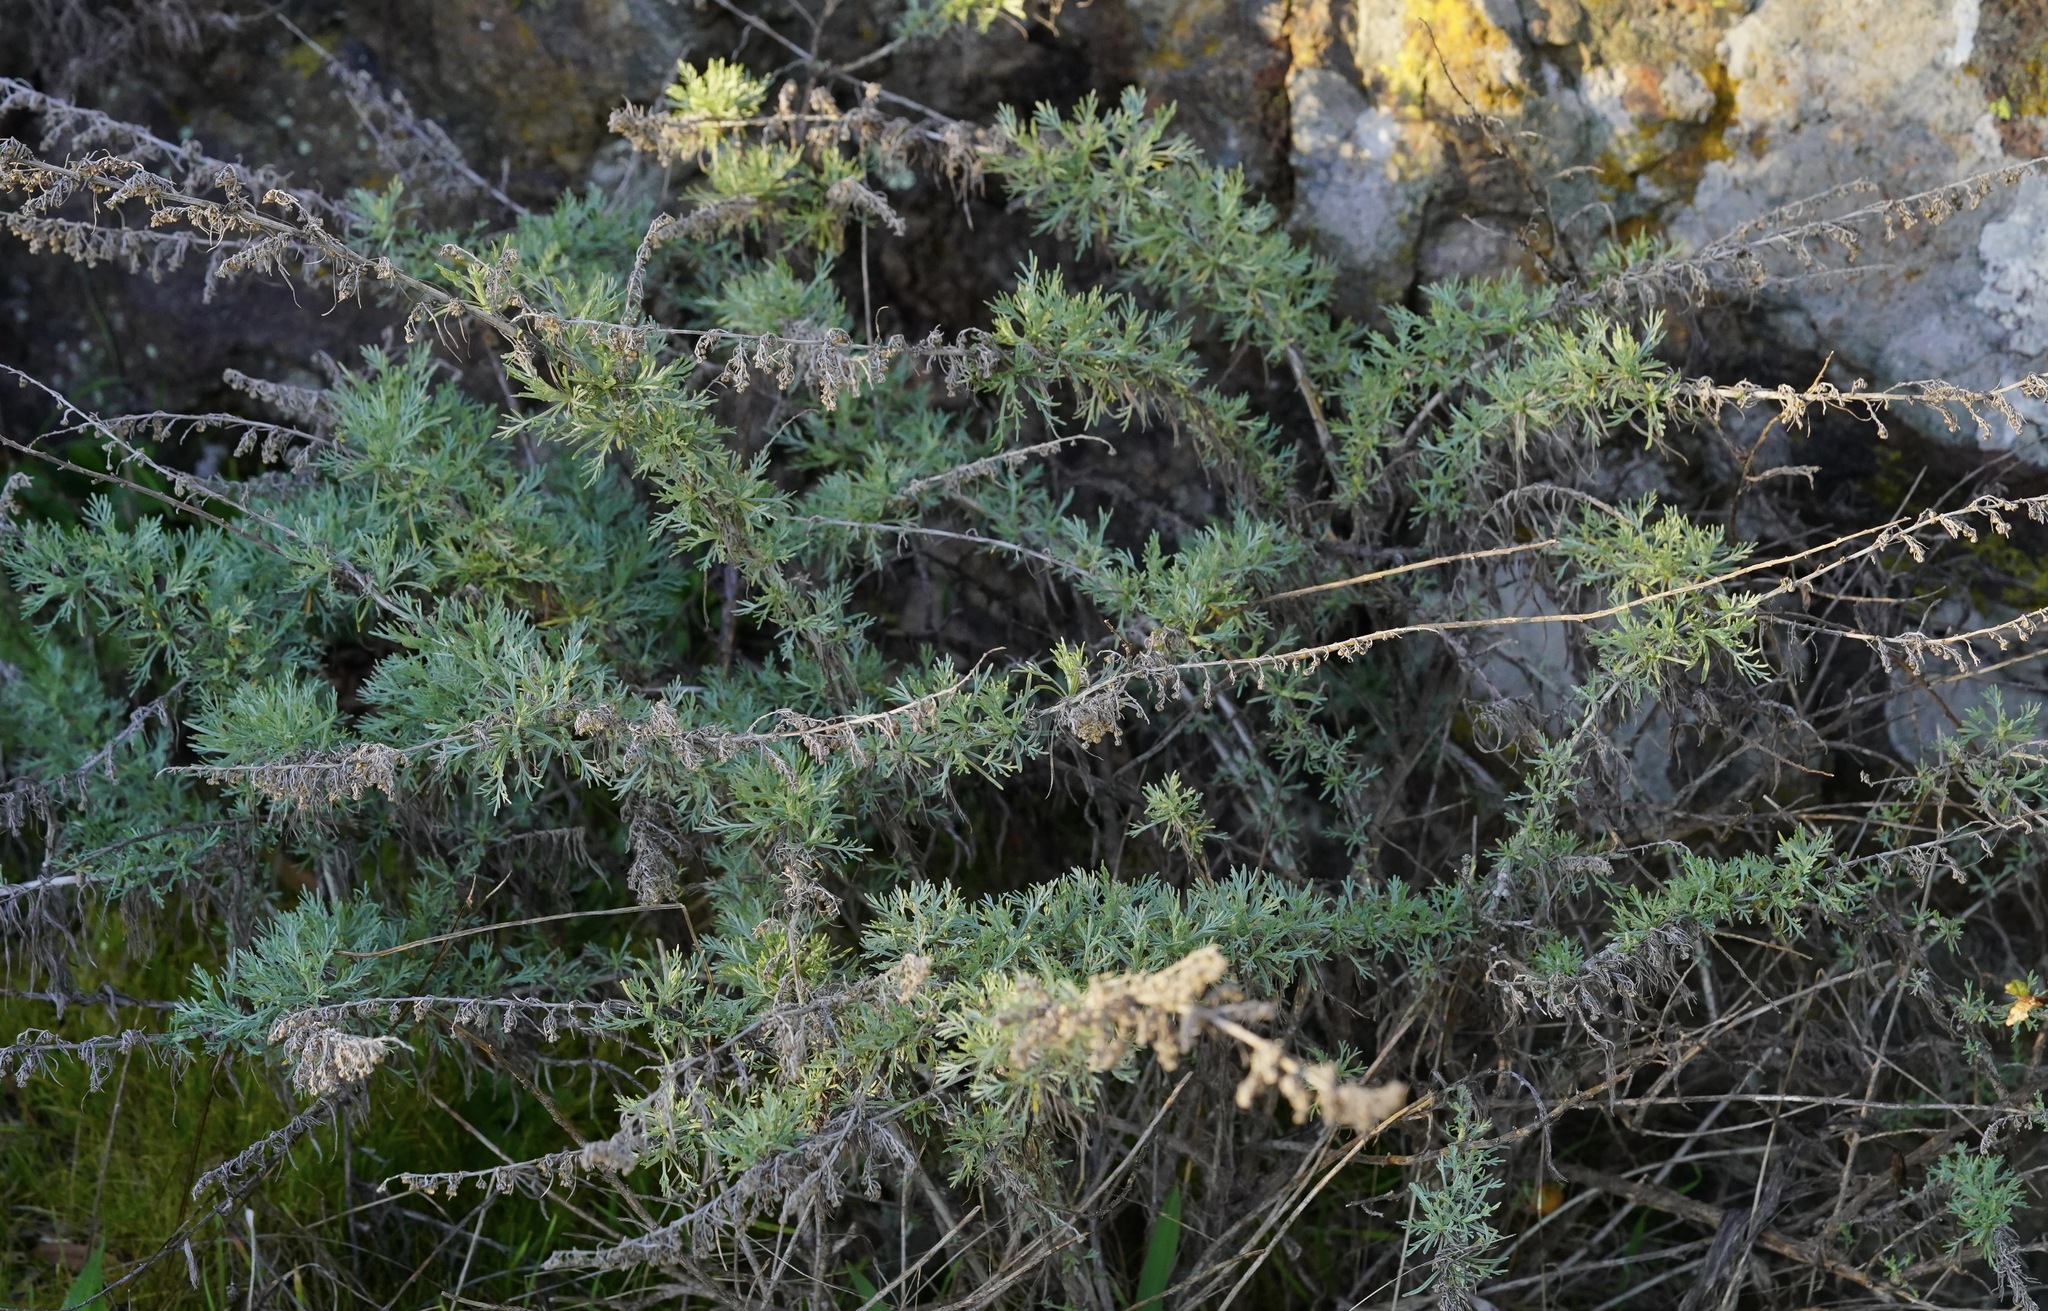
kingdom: Plantae
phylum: Tracheophyta
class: Magnoliopsida
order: Asterales
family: Asteraceae
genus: Artemisia
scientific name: Artemisia californica
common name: California sagebrush
